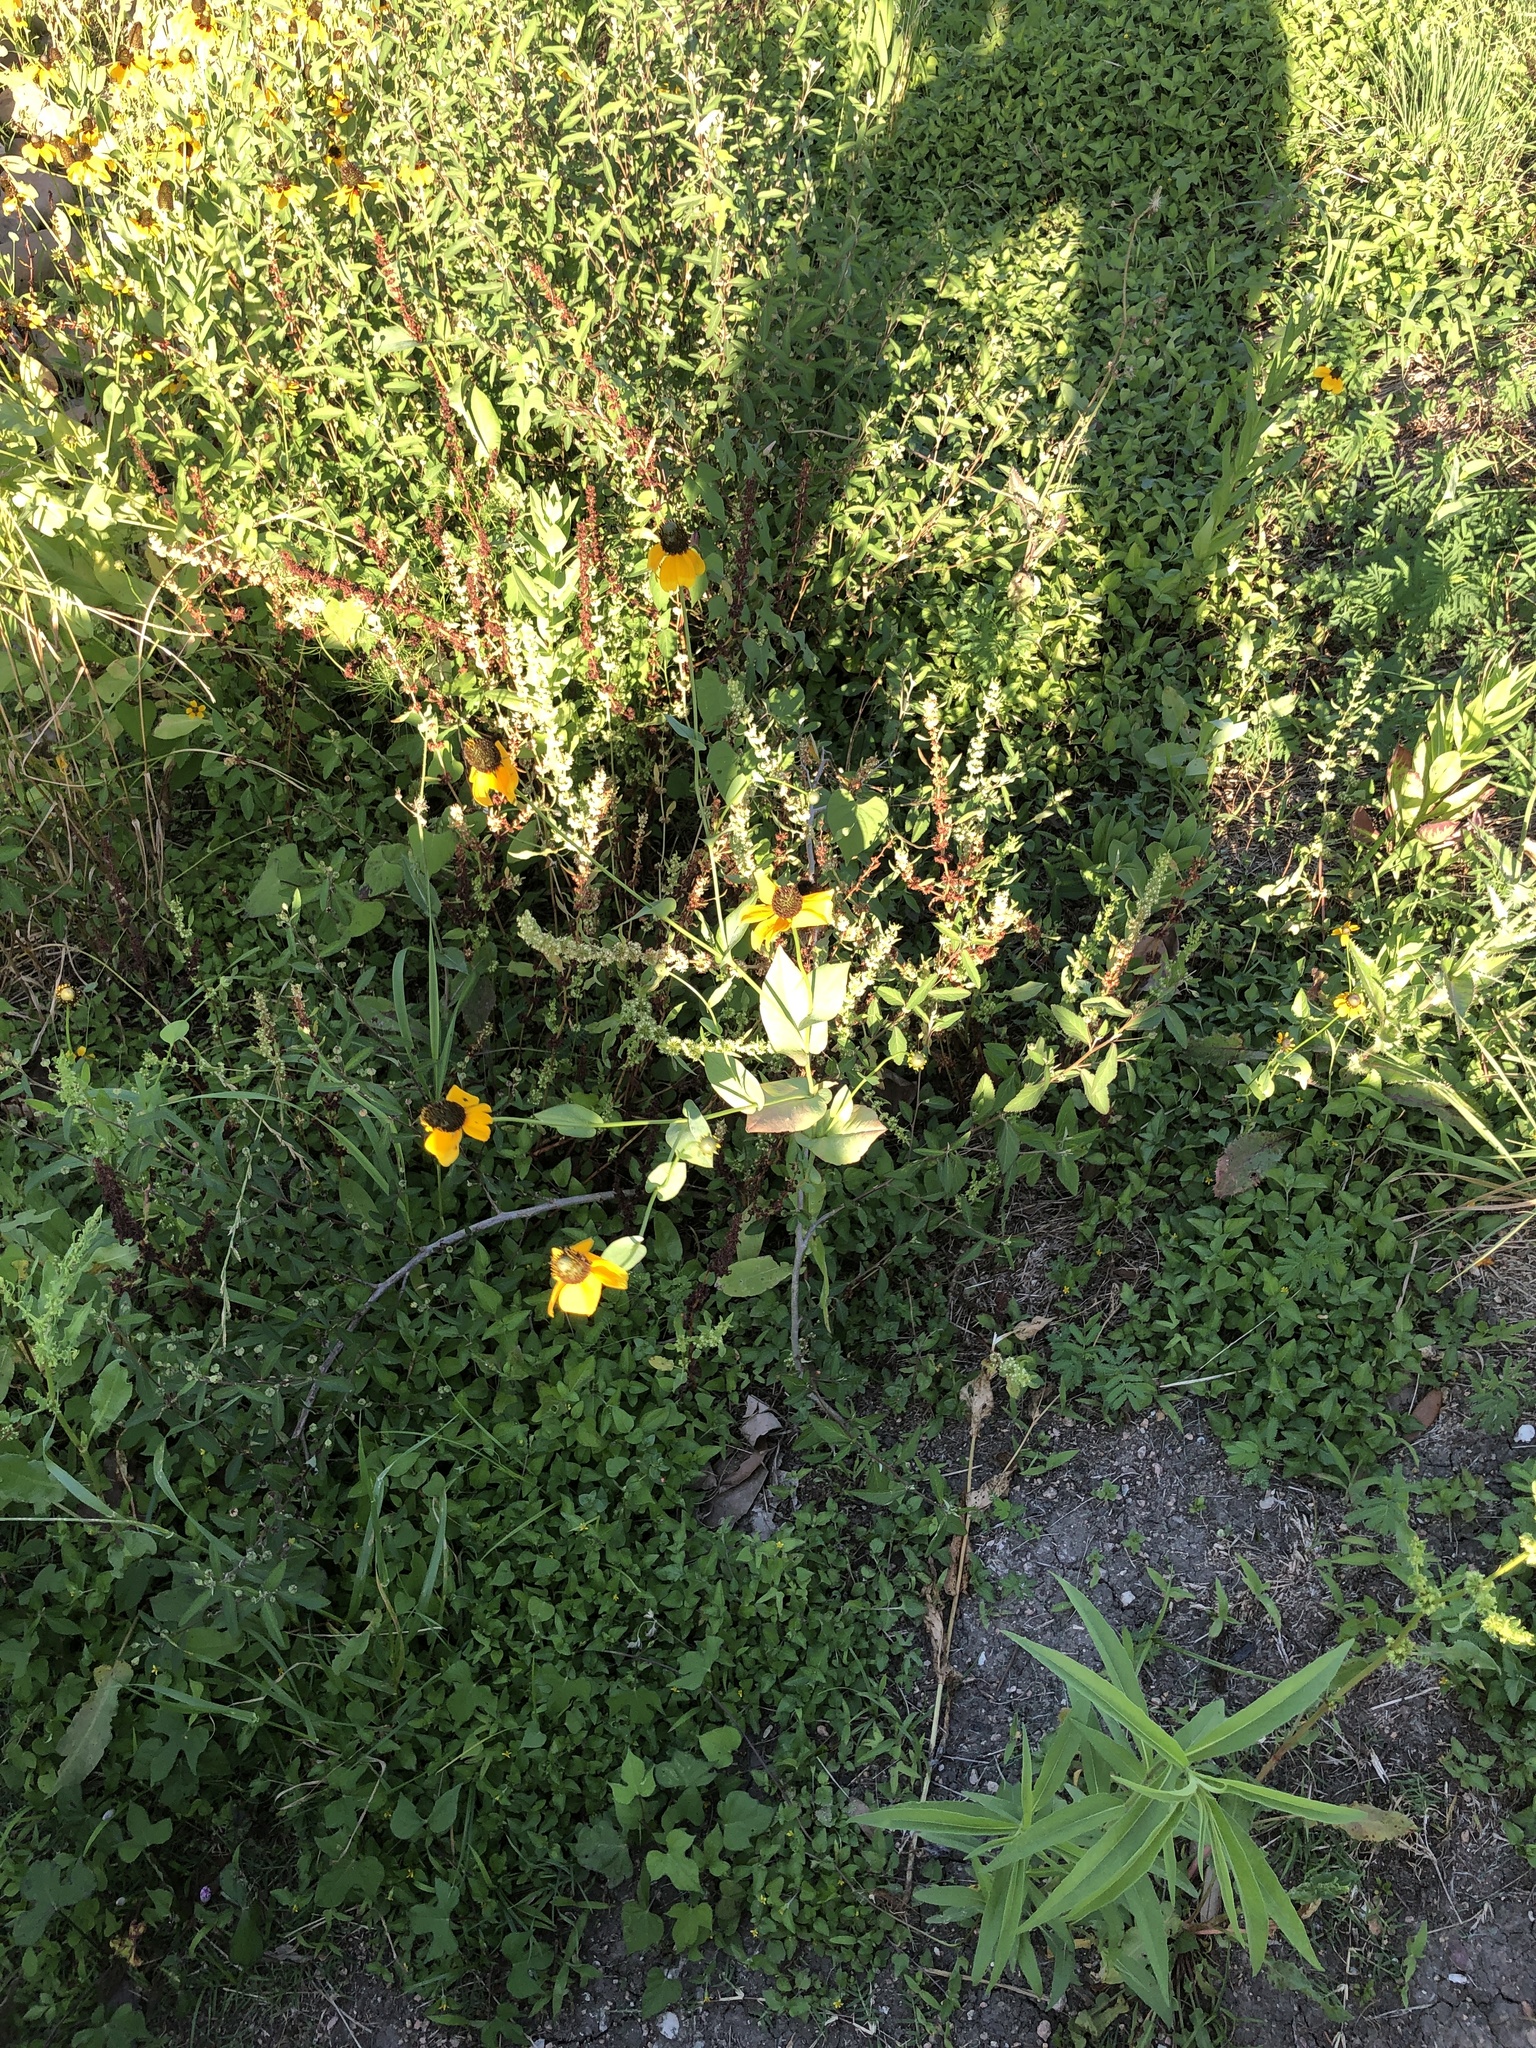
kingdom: Plantae
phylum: Tracheophyta
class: Magnoliopsida
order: Asterales
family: Asteraceae
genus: Rudbeckia
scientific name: Rudbeckia amplexicaulis
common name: Clasping-leaf coneflower
